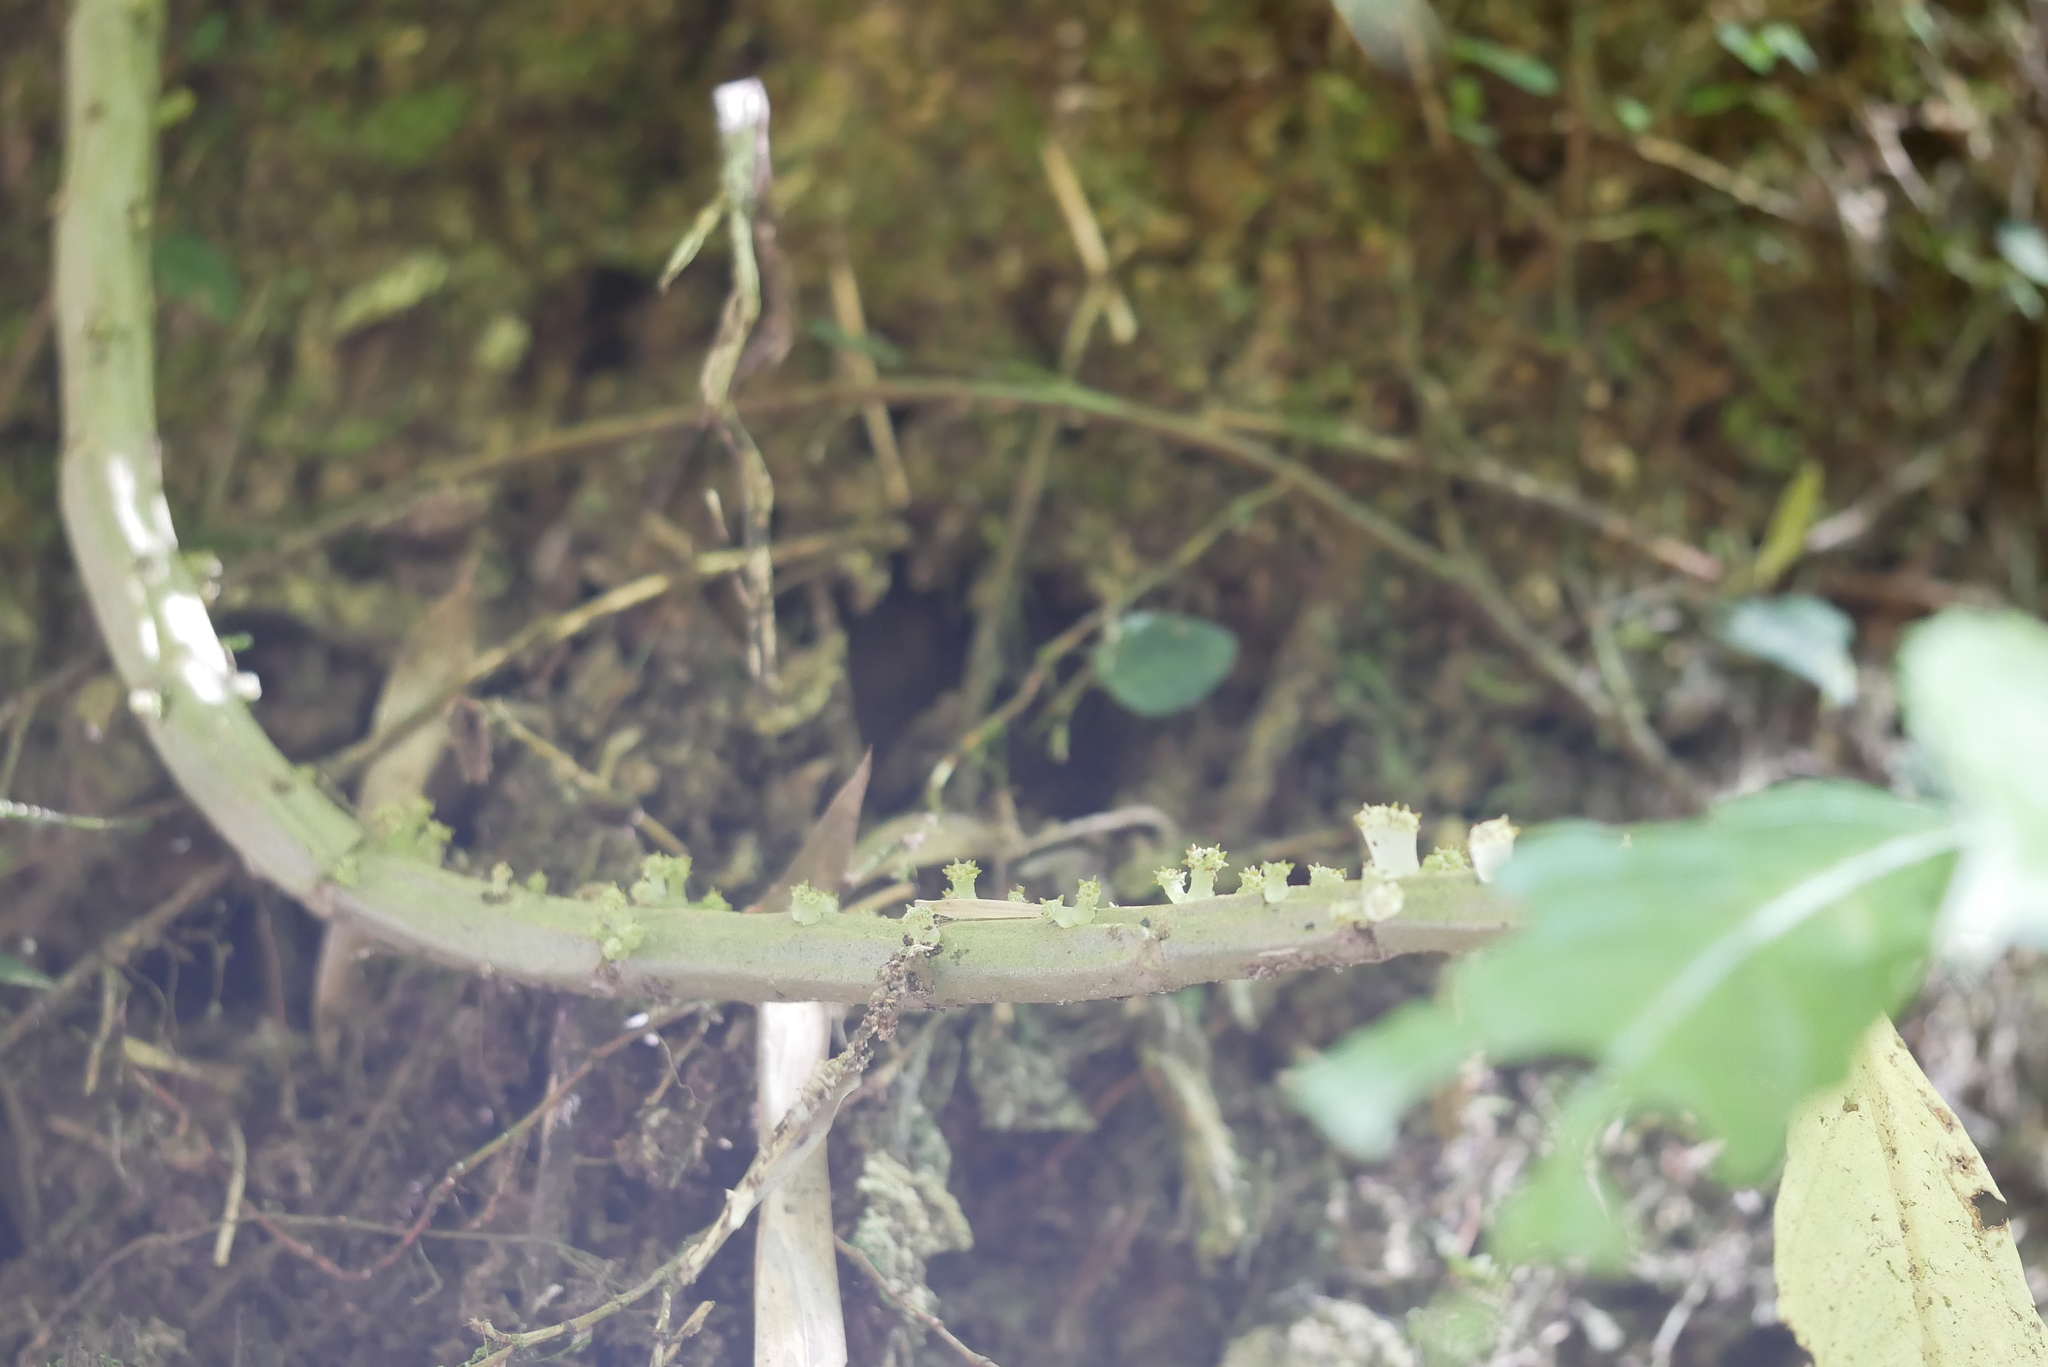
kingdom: Plantae
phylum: Tracheophyta
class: Magnoliopsida
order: Rosales
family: Urticaceae
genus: Procris
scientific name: Procris
